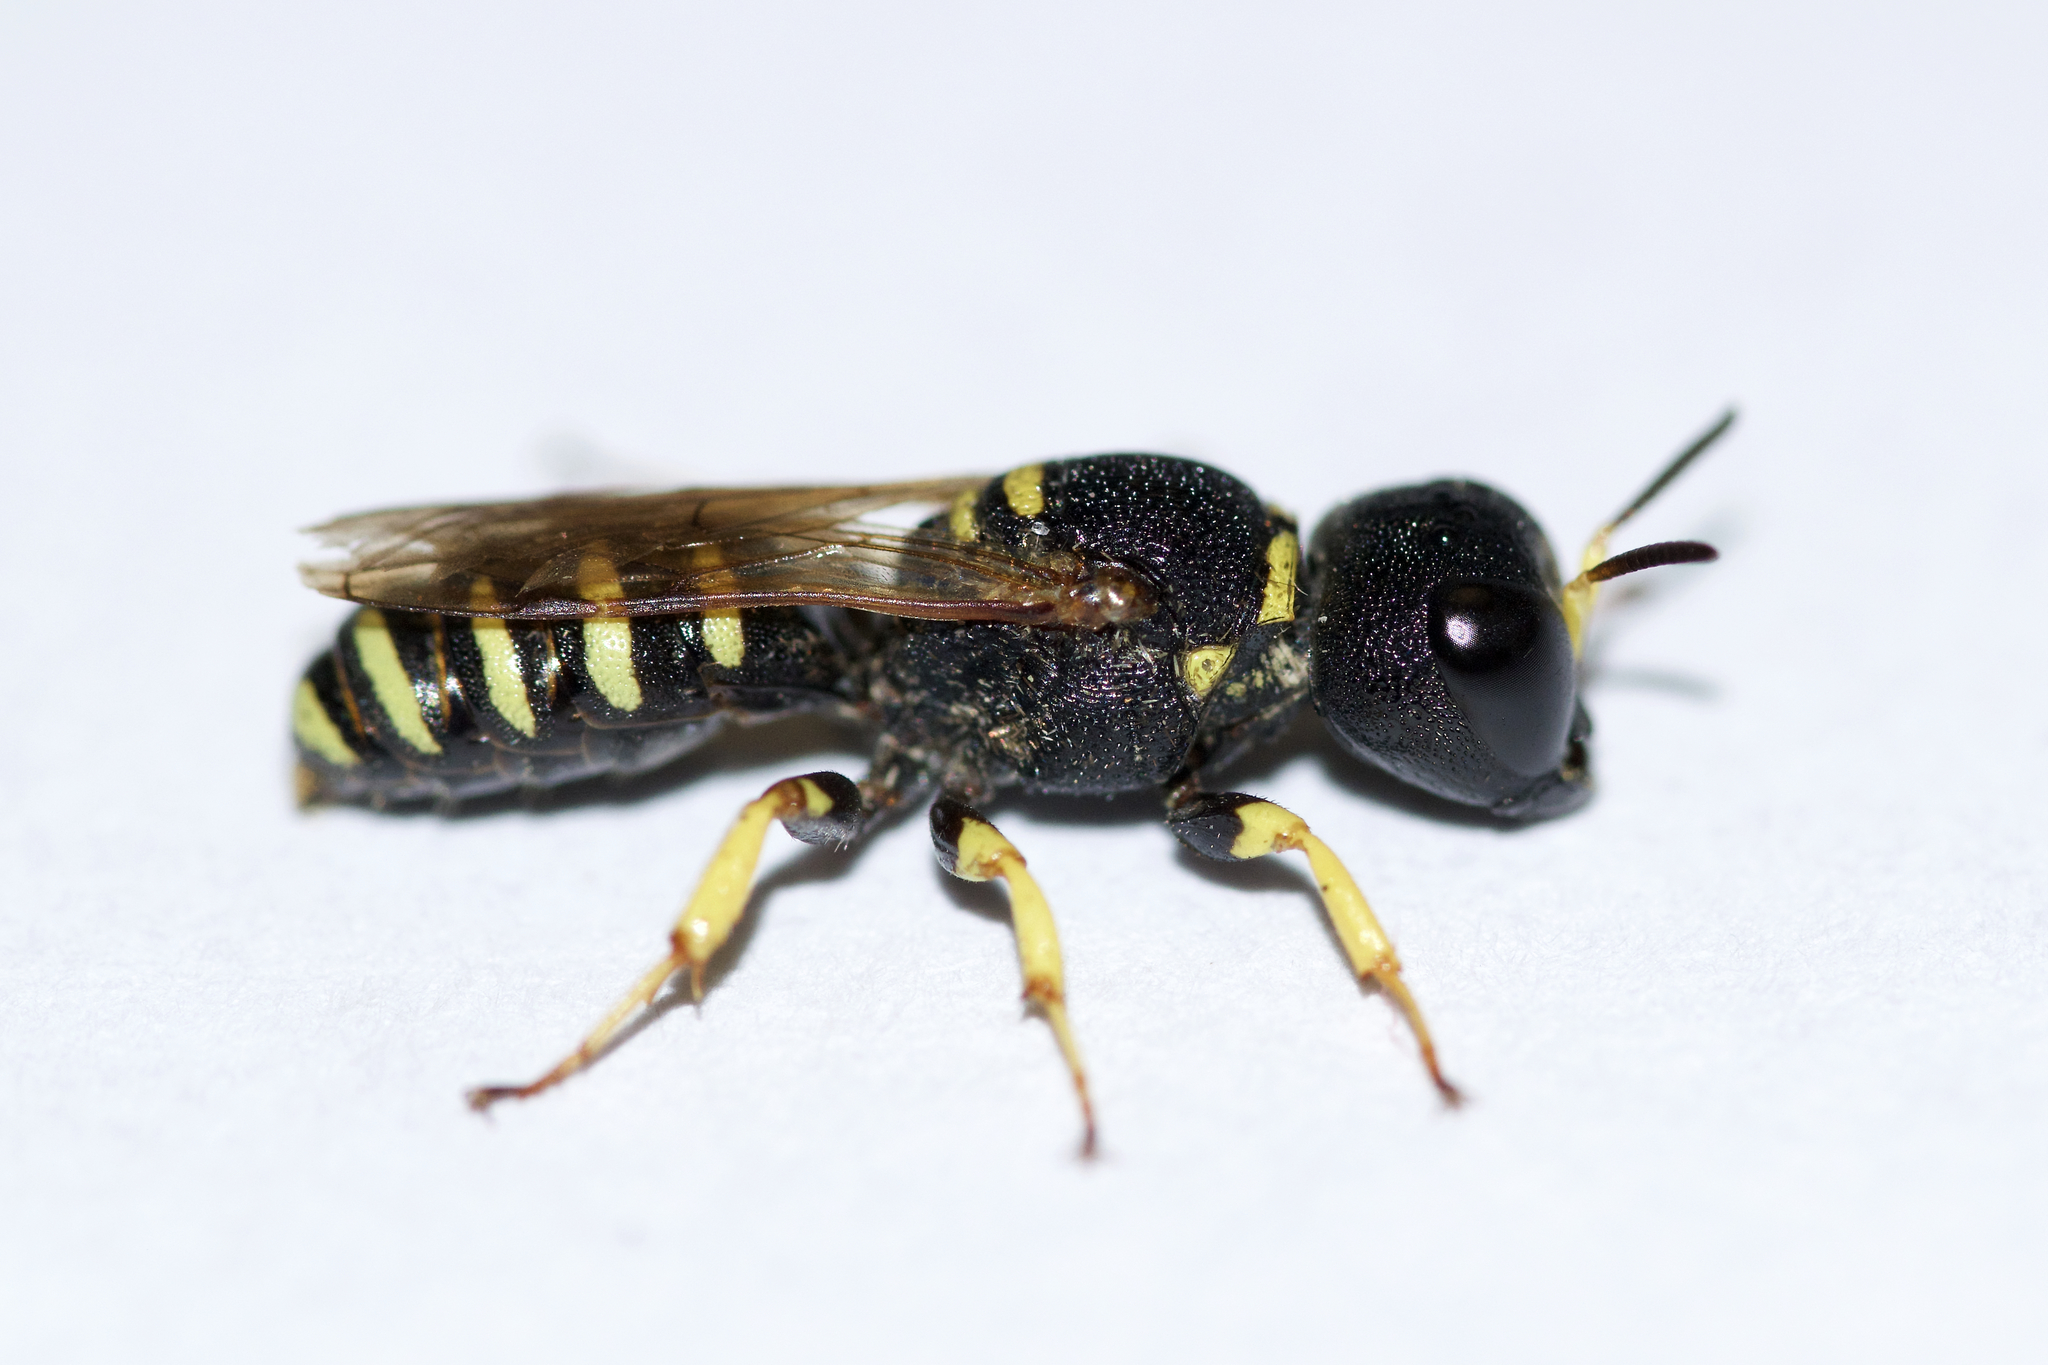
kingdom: Animalia
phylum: Arthropoda
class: Insecta
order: Hymenoptera
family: Crabronidae
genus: Lestica
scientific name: Lestica confluenta
